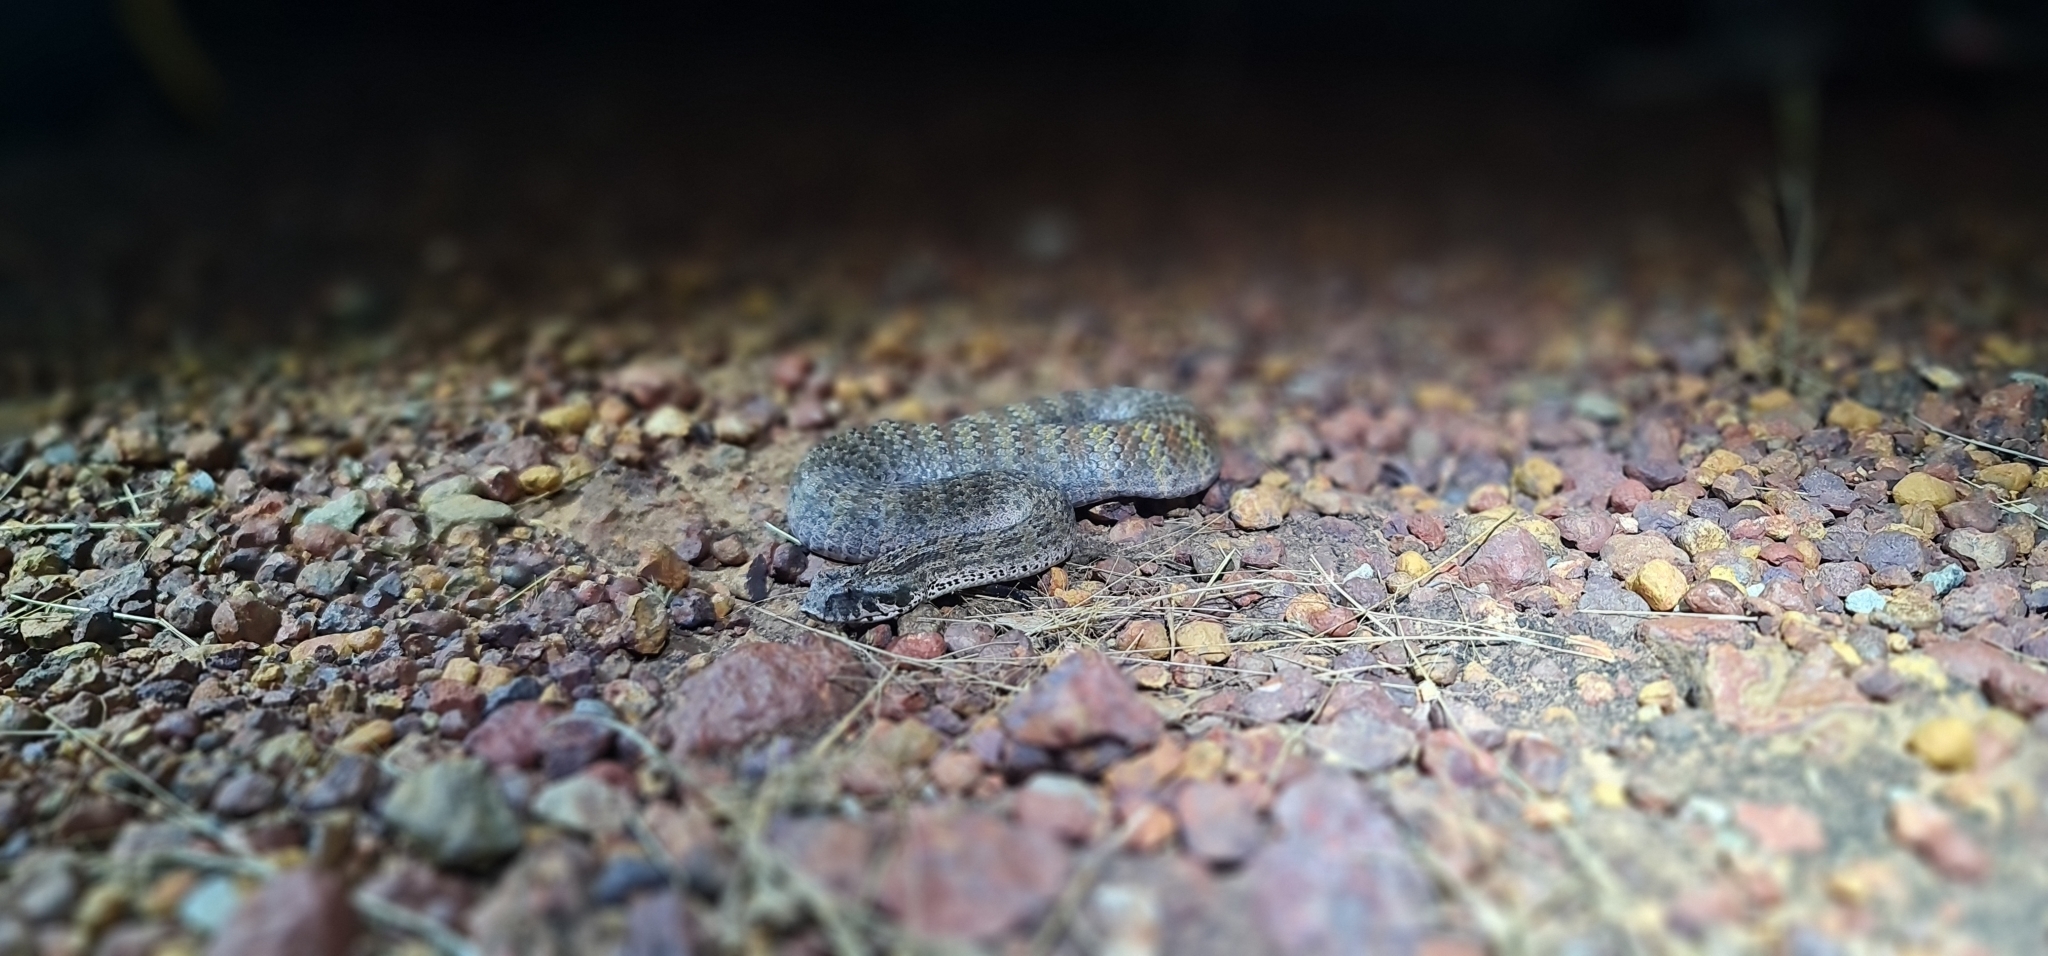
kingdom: Animalia
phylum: Chordata
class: Squamata
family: Elapidae
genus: Acanthophis
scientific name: Acanthophis rugosus
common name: Papuan death adder
